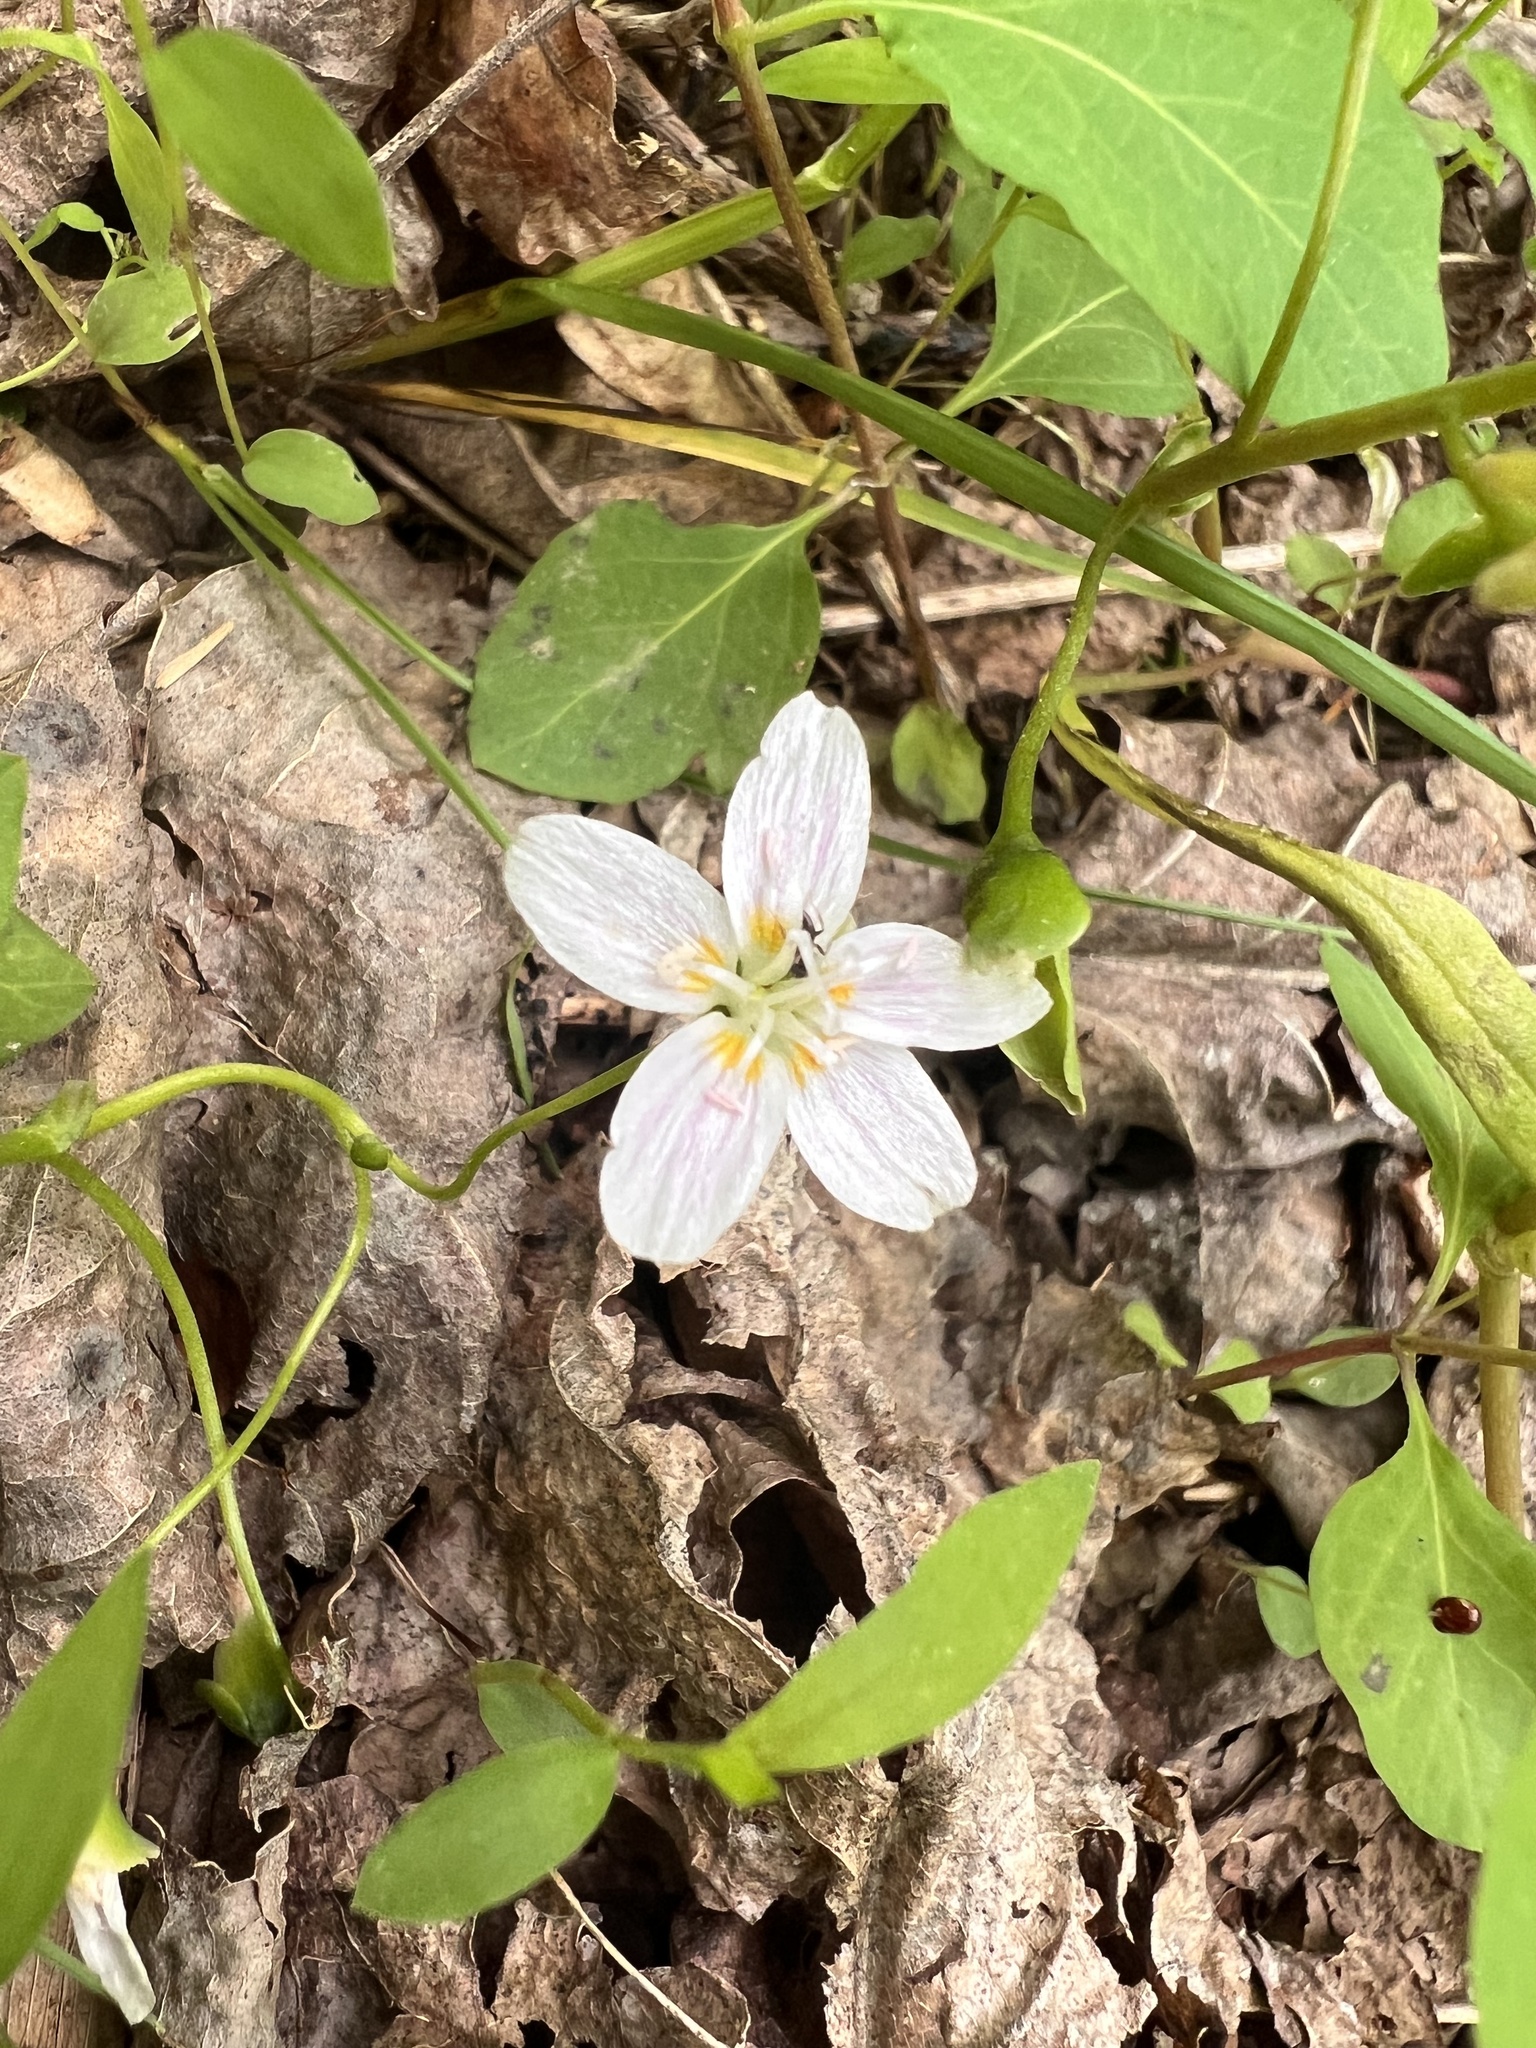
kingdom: Plantae
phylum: Tracheophyta
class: Magnoliopsida
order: Caryophyllales
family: Montiaceae
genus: Claytonia
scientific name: Claytonia virginica
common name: Virginia springbeauty
